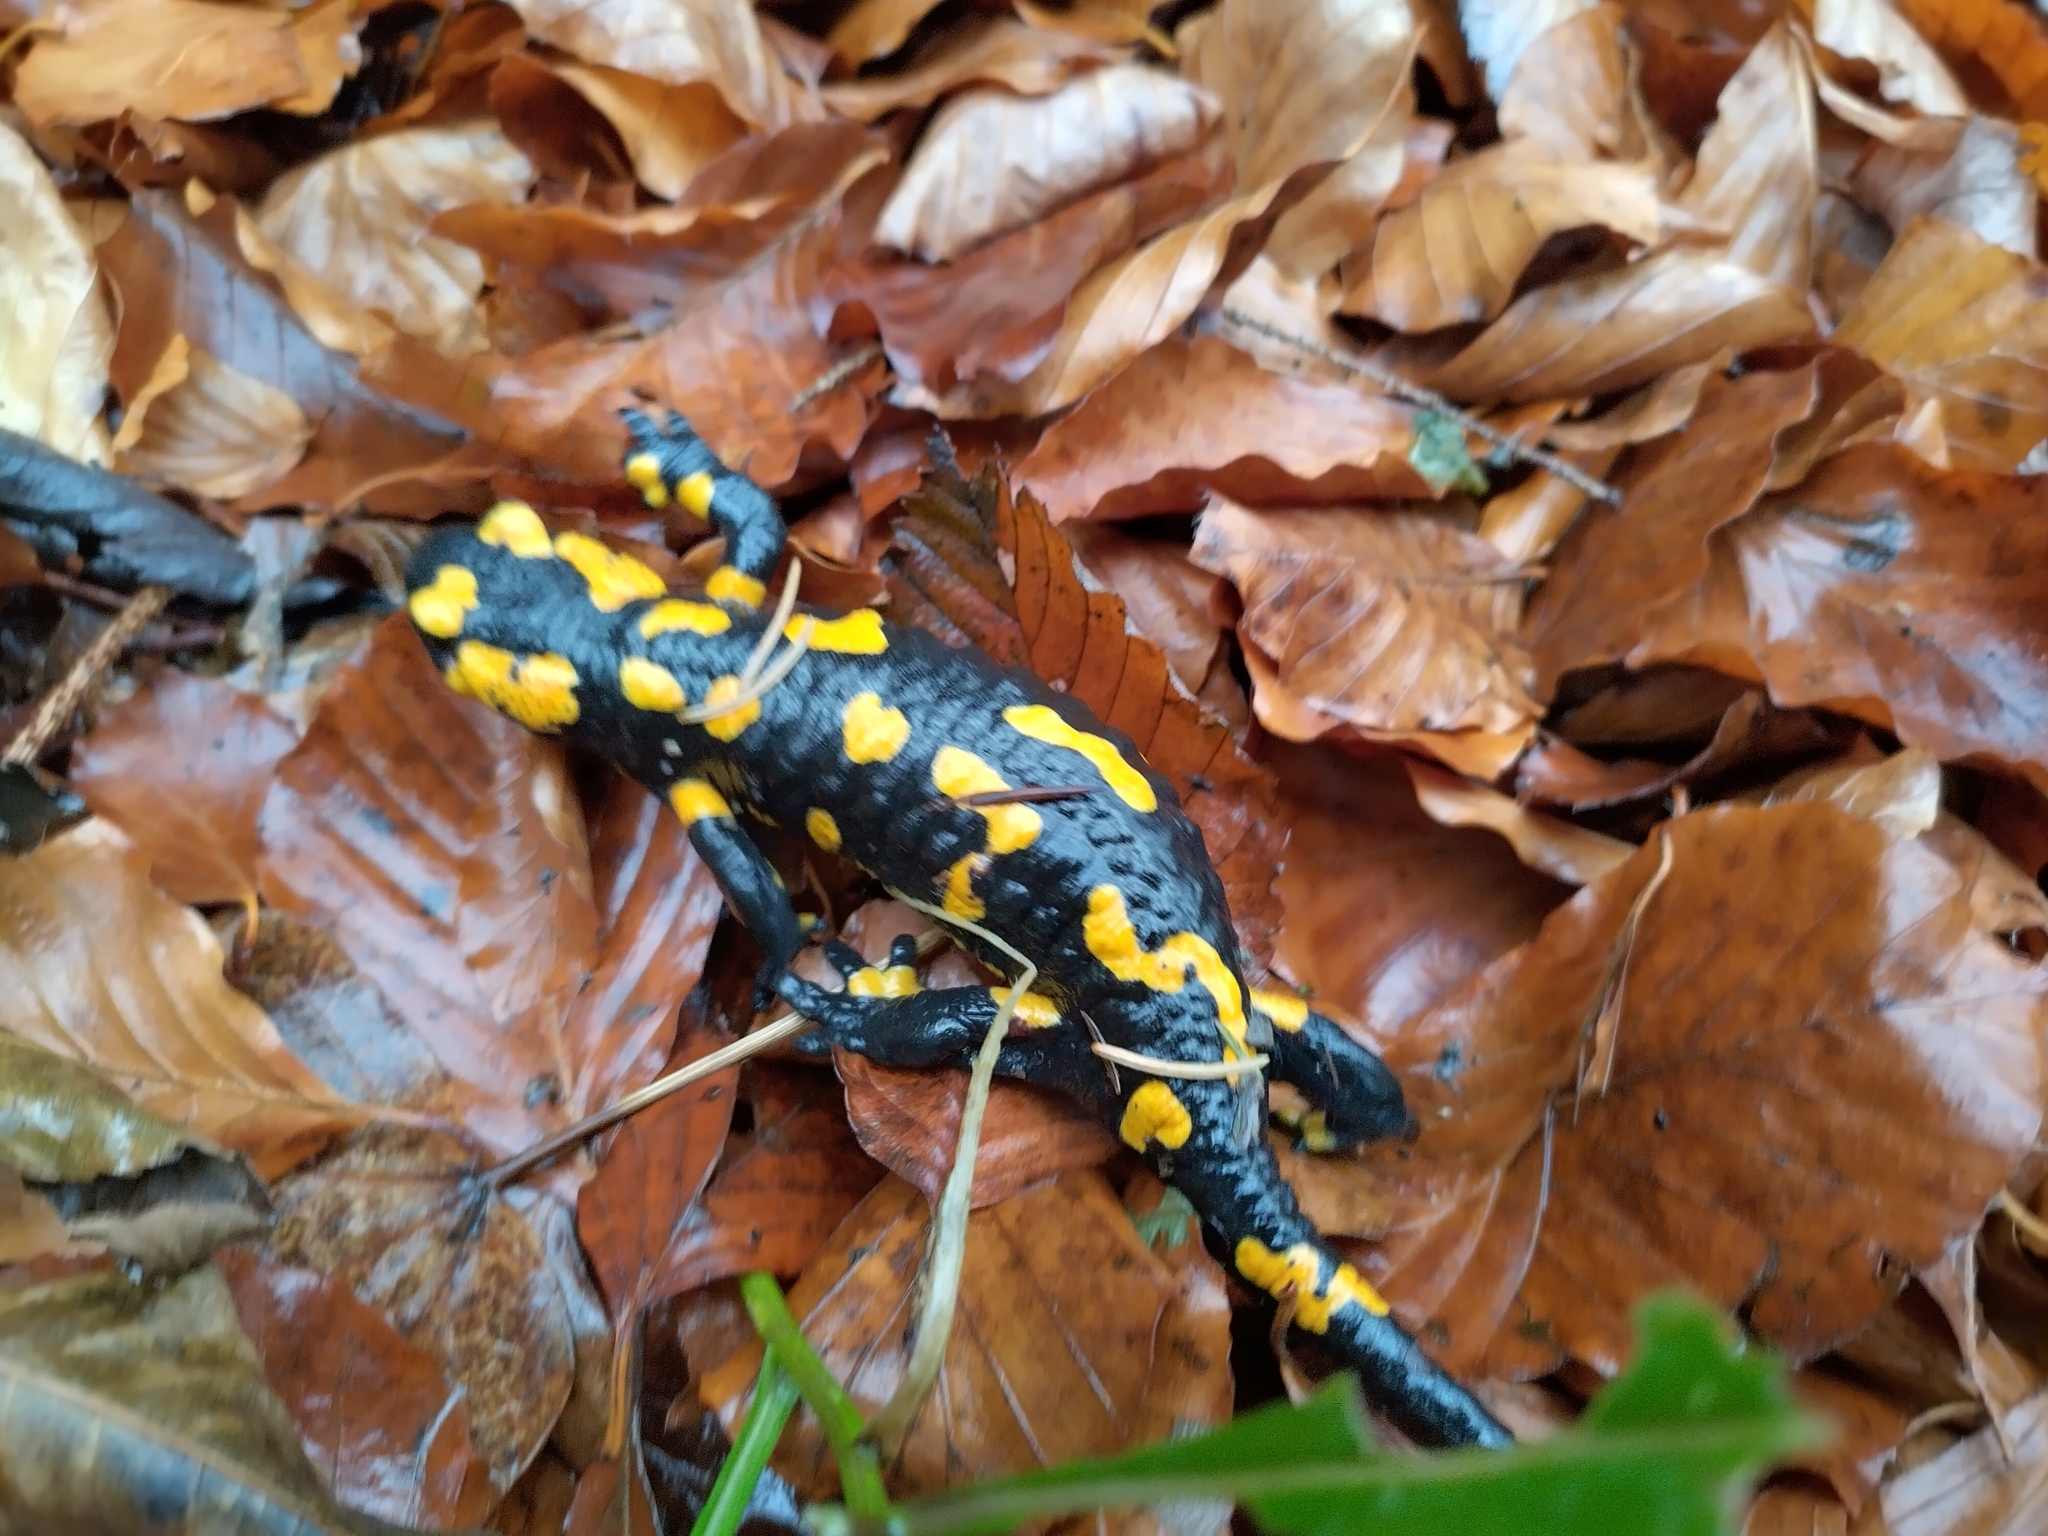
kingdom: Animalia
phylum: Chordata
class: Amphibia
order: Caudata
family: Salamandridae
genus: Salamandra
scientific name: Salamandra salamandra
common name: Fire salamander
